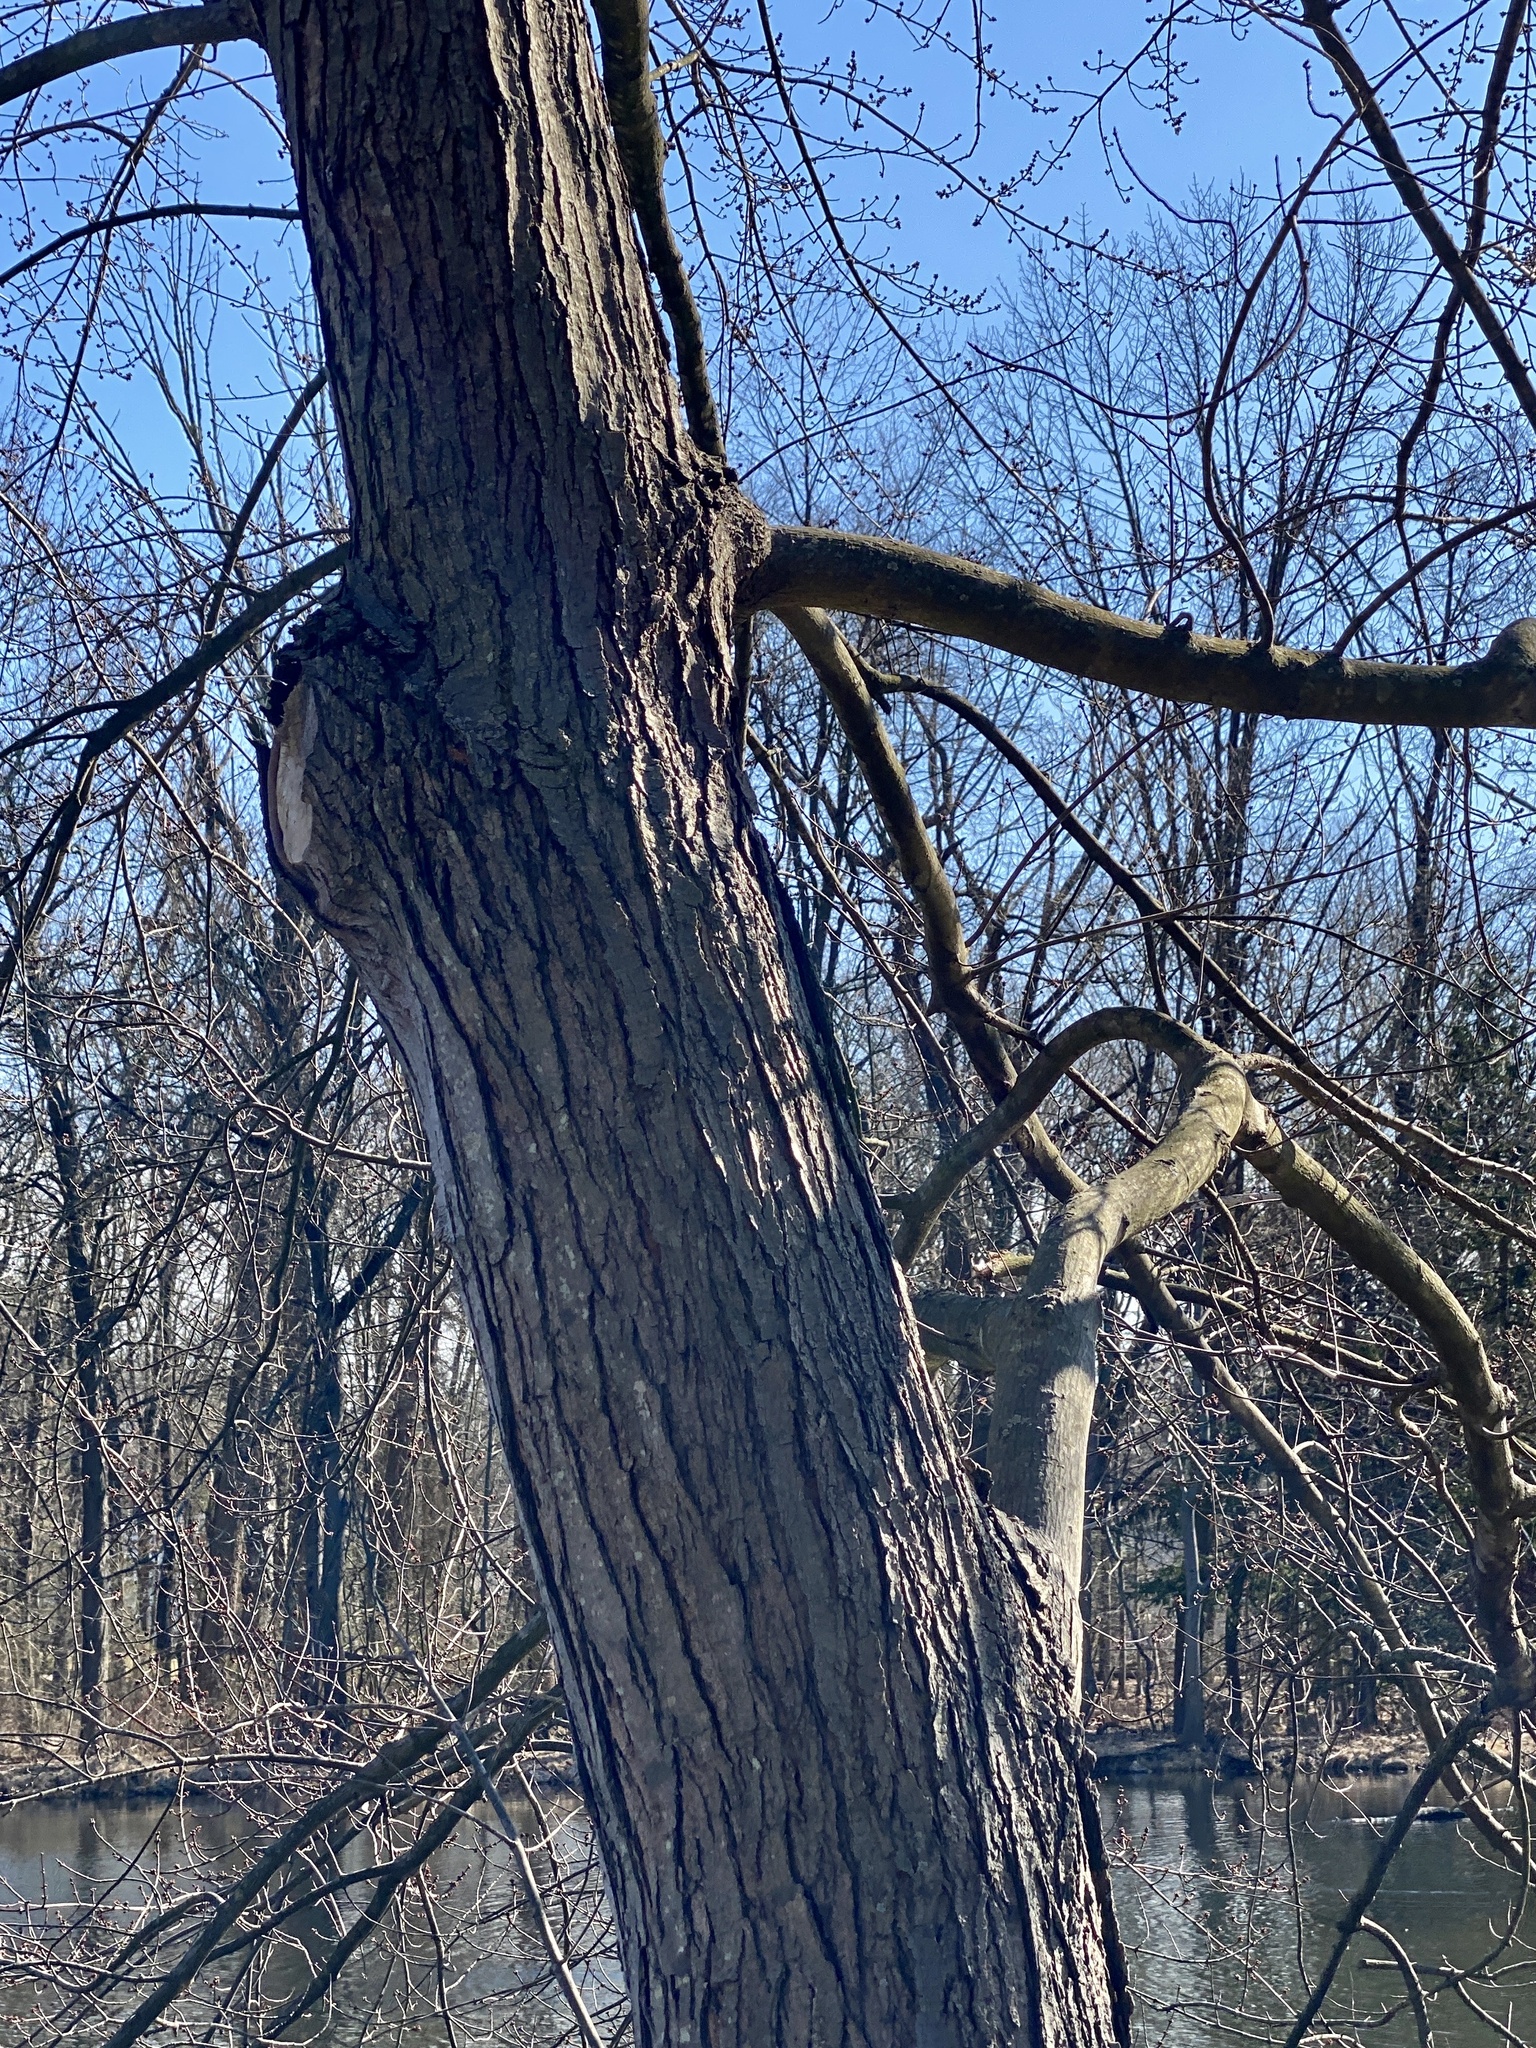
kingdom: Plantae
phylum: Tracheophyta
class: Magnoliopsida
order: Sapindales
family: Sapindaceae
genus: Acer
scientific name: Acer rubrum
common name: Red maple
